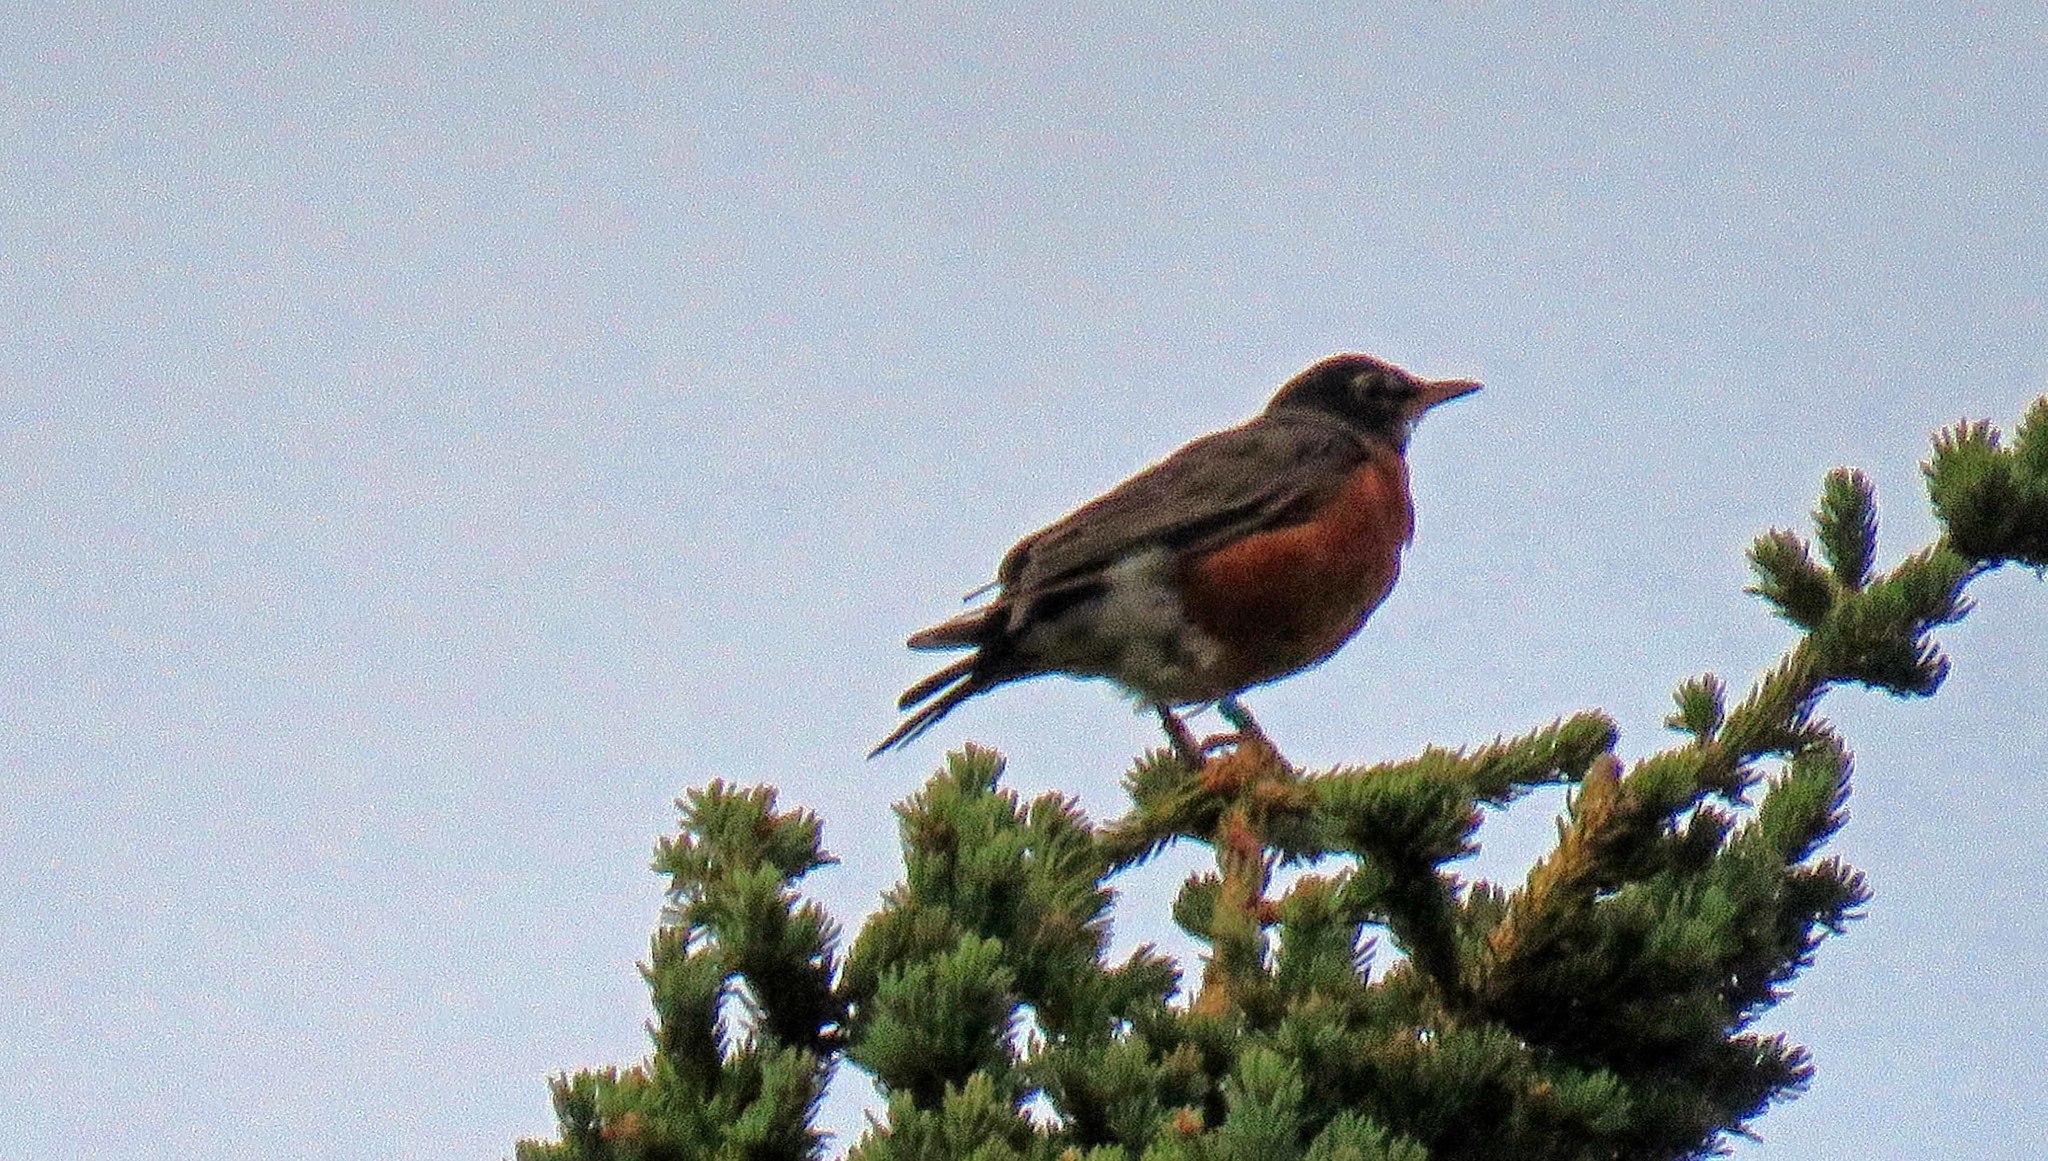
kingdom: Animalia
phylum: Chordata
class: Aves
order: Passeriformes
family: Turdidae
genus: Turdus
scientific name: Turdus migratorius
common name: American robin
